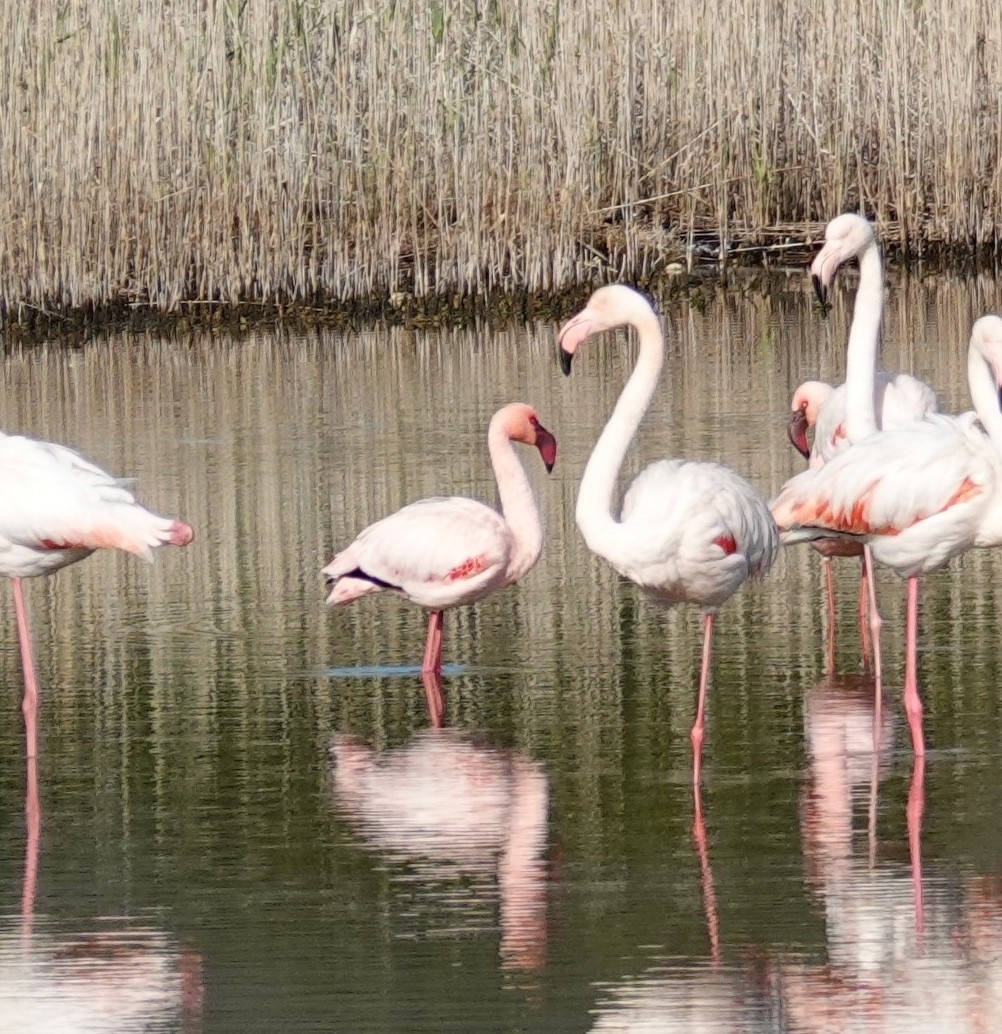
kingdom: Animalia
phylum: Chordata
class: Aves
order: Phoenicopteriformes
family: Phoenicopteridae
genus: Phoeniconaias
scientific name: Phoeniconaias minor
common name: Lesser flamingo
